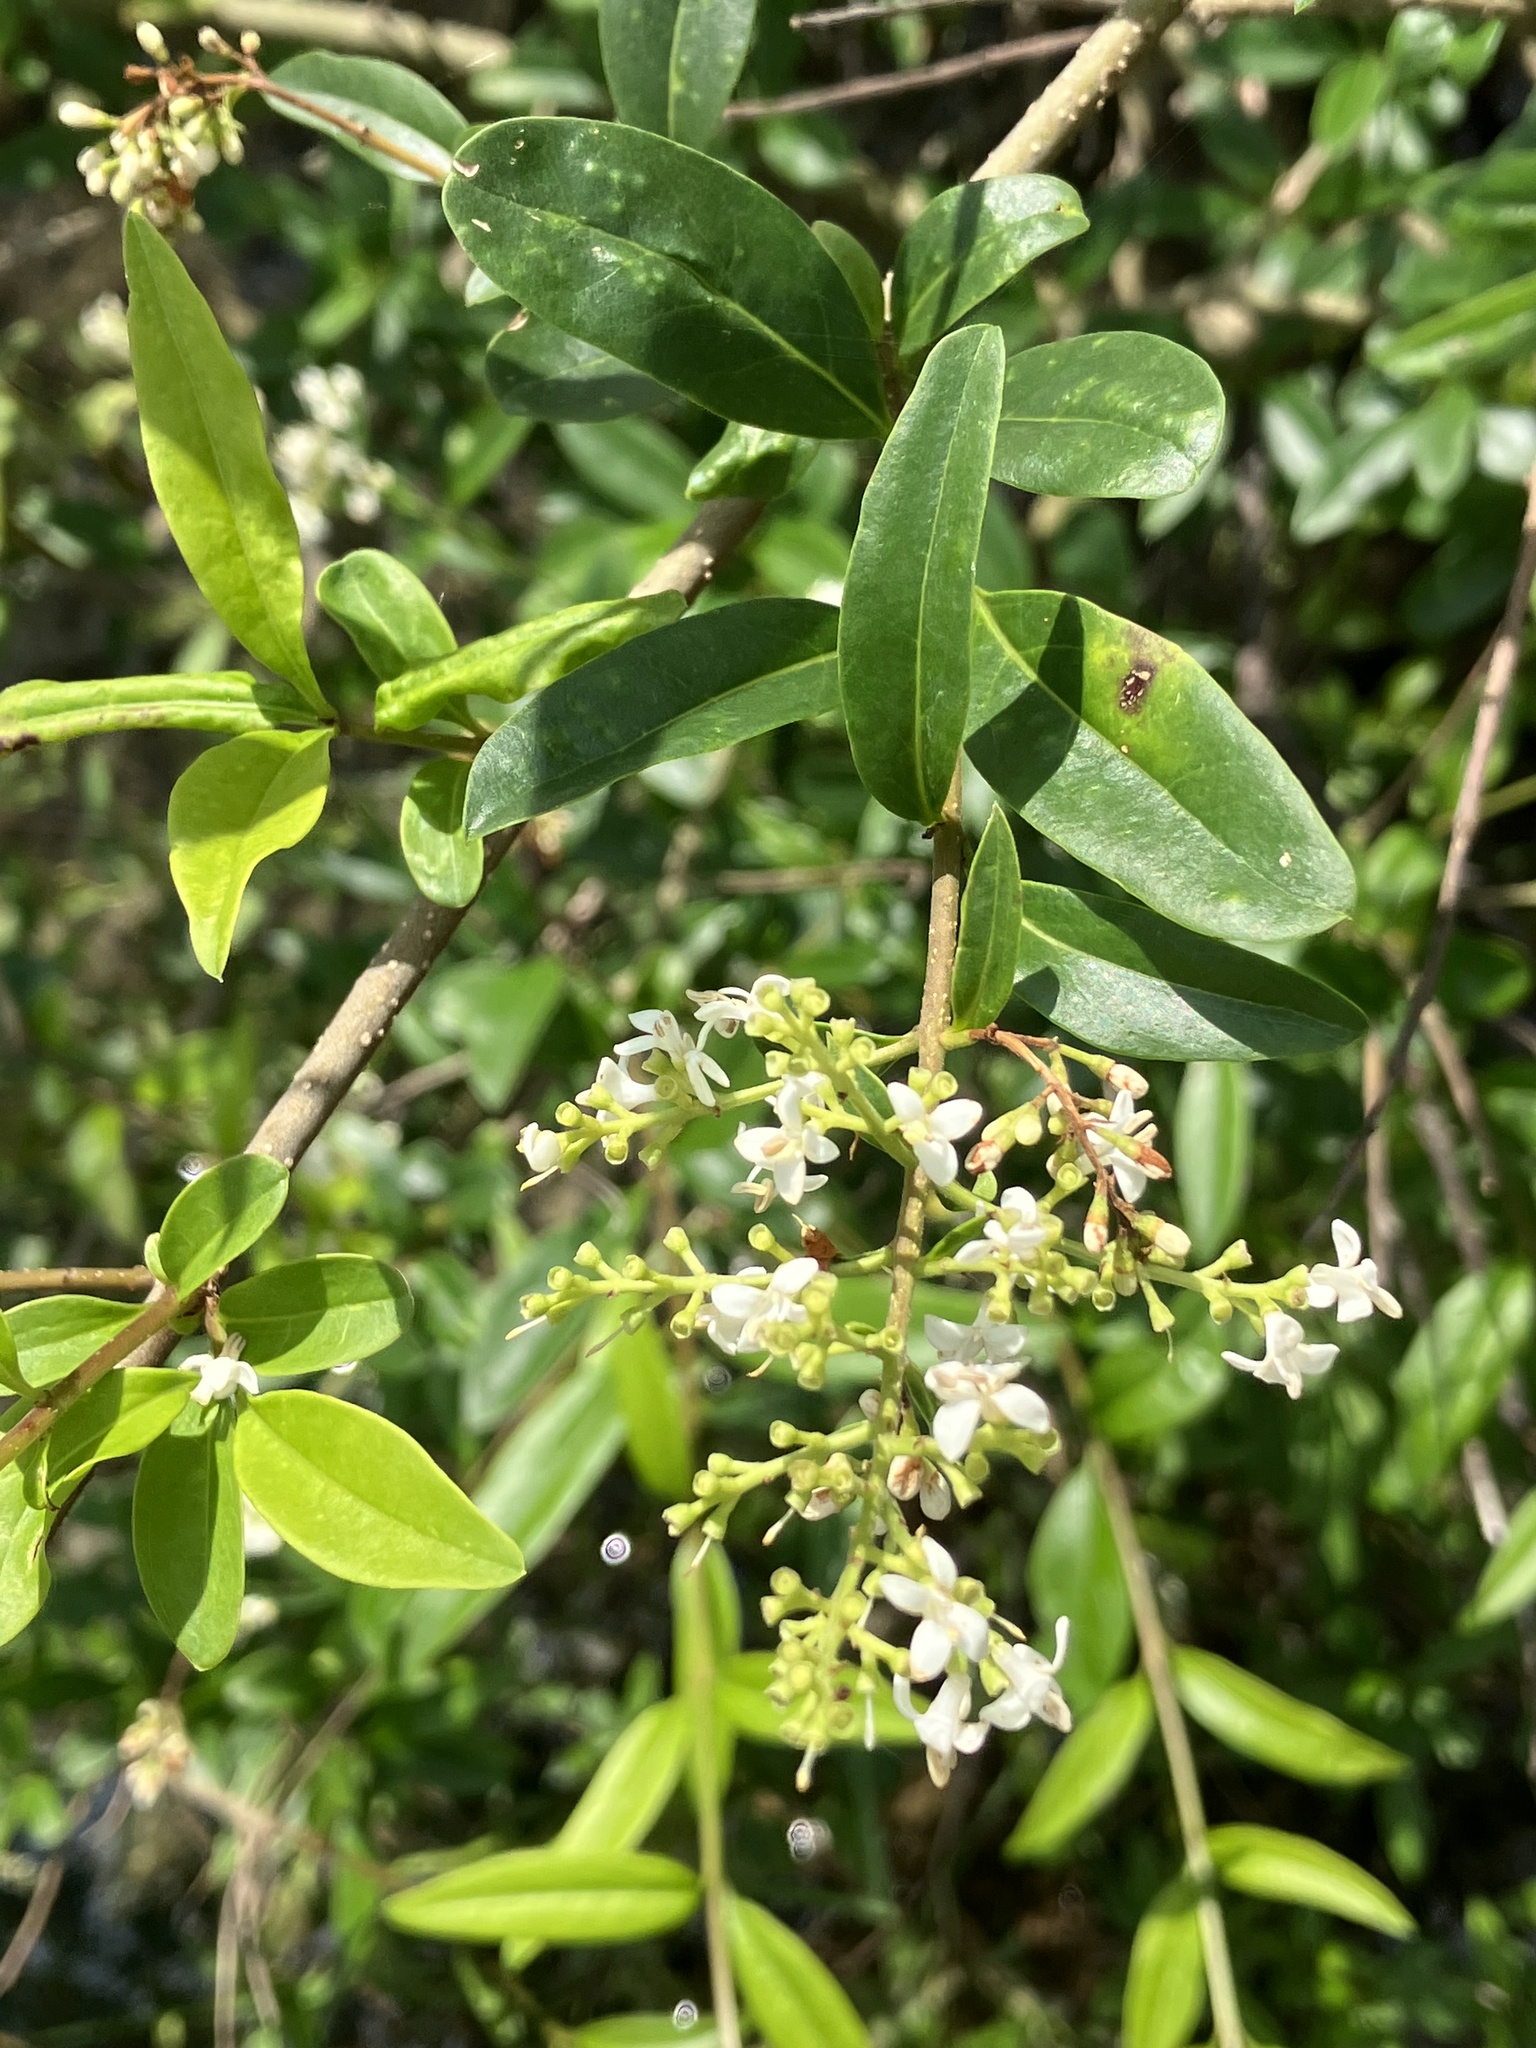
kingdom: Plantae
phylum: Tracheophyta
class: Magnoliopsida
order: Lamiales
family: Oleaceae
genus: Ligustrum
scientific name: Ligustrum vulgare
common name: Wild privet
